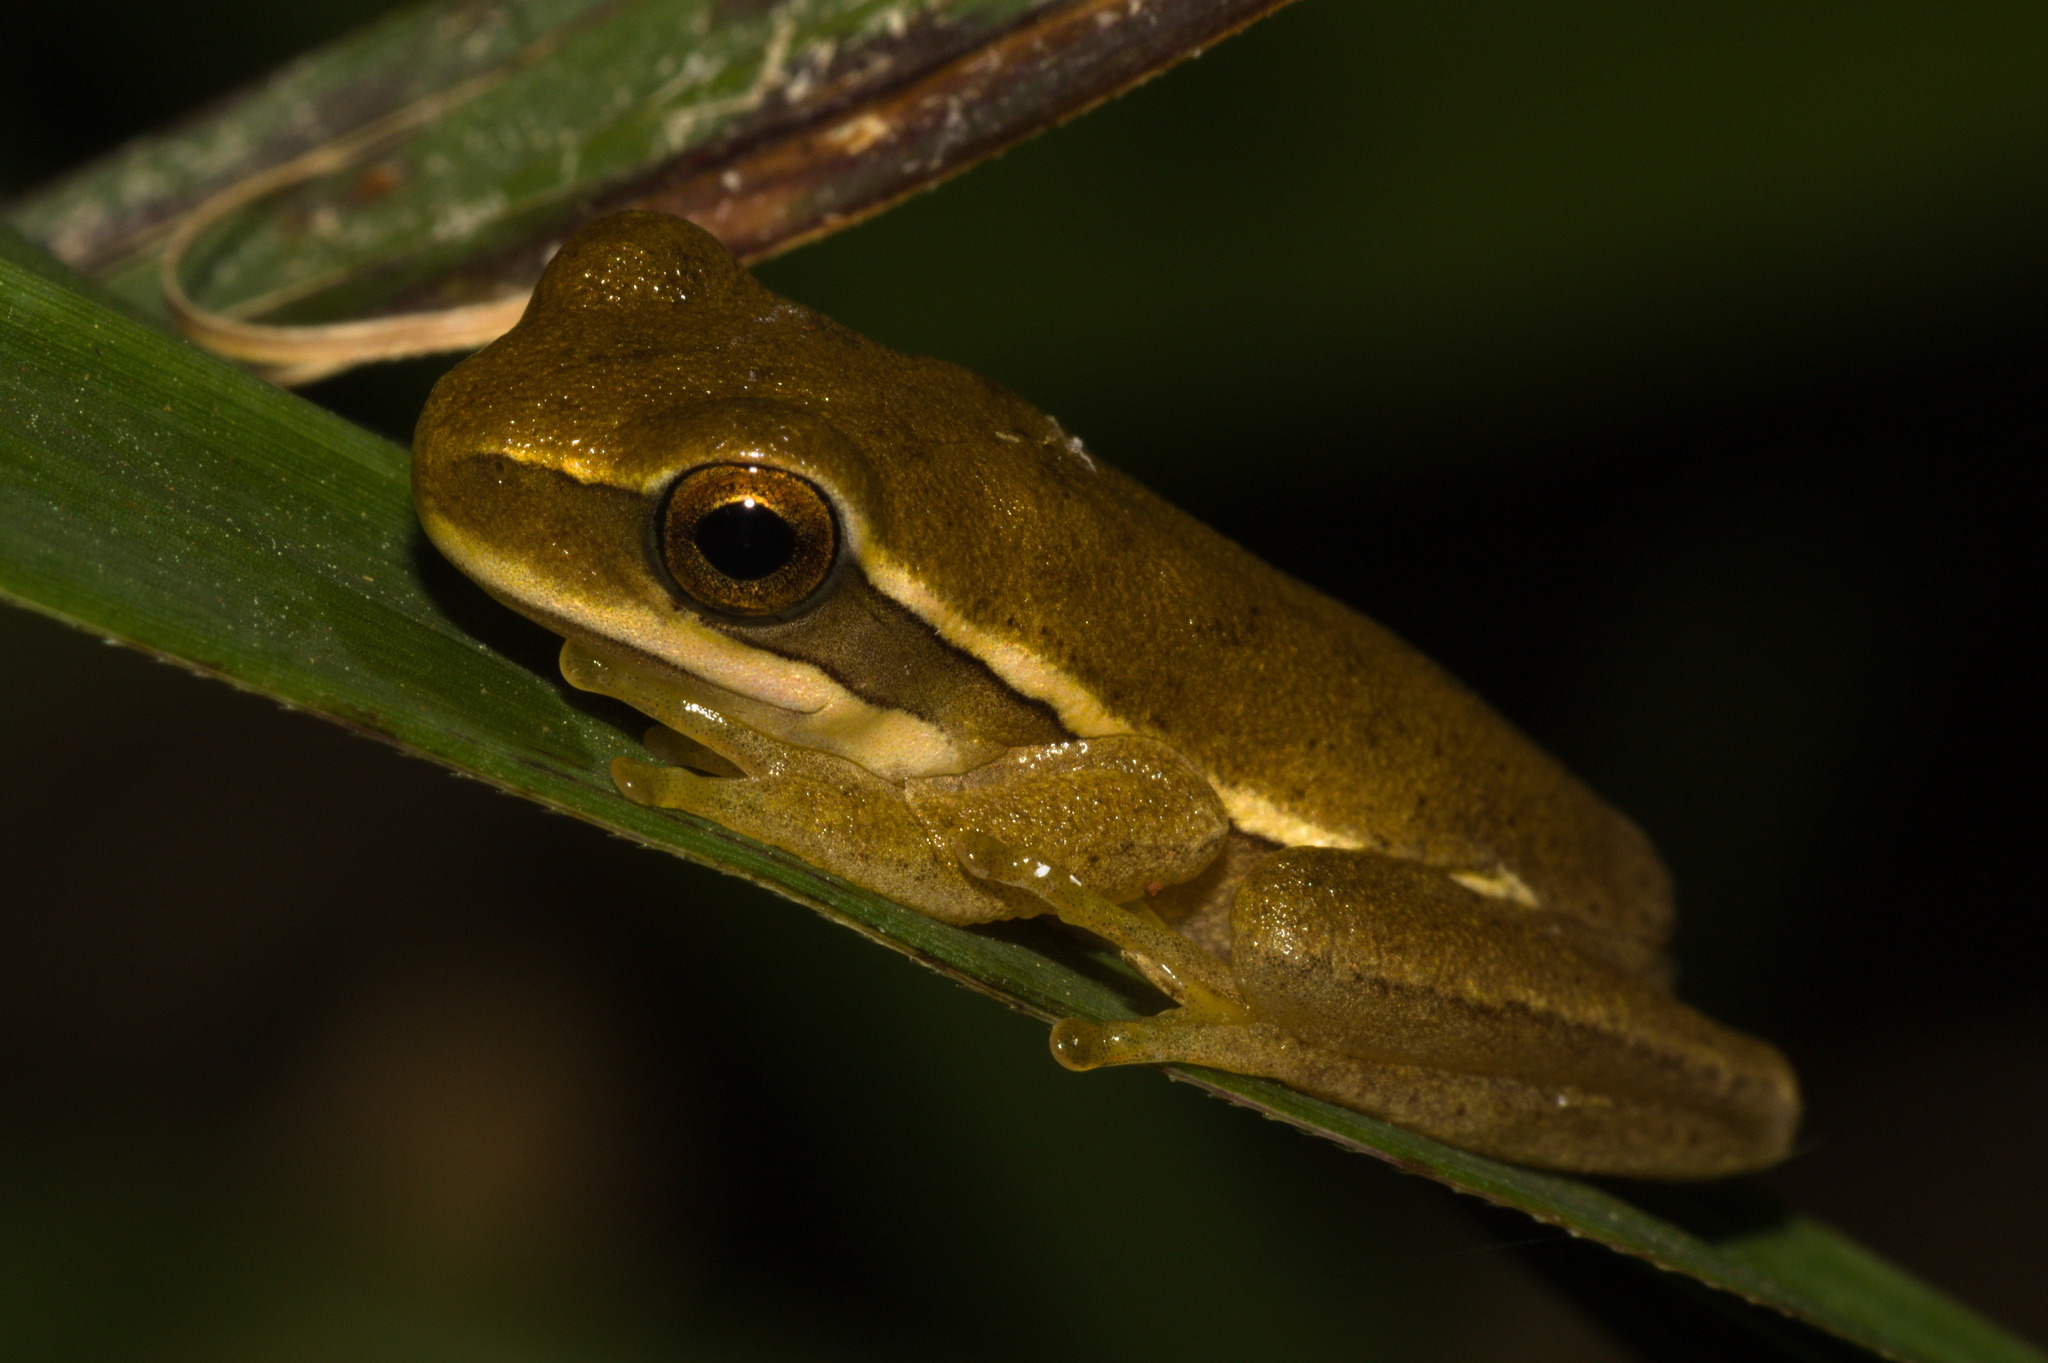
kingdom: Animalia
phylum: Chordata
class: Amphibia
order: Anura
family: Hylidae
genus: Boana
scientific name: Boana pulchella
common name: Montevideo treefrog
